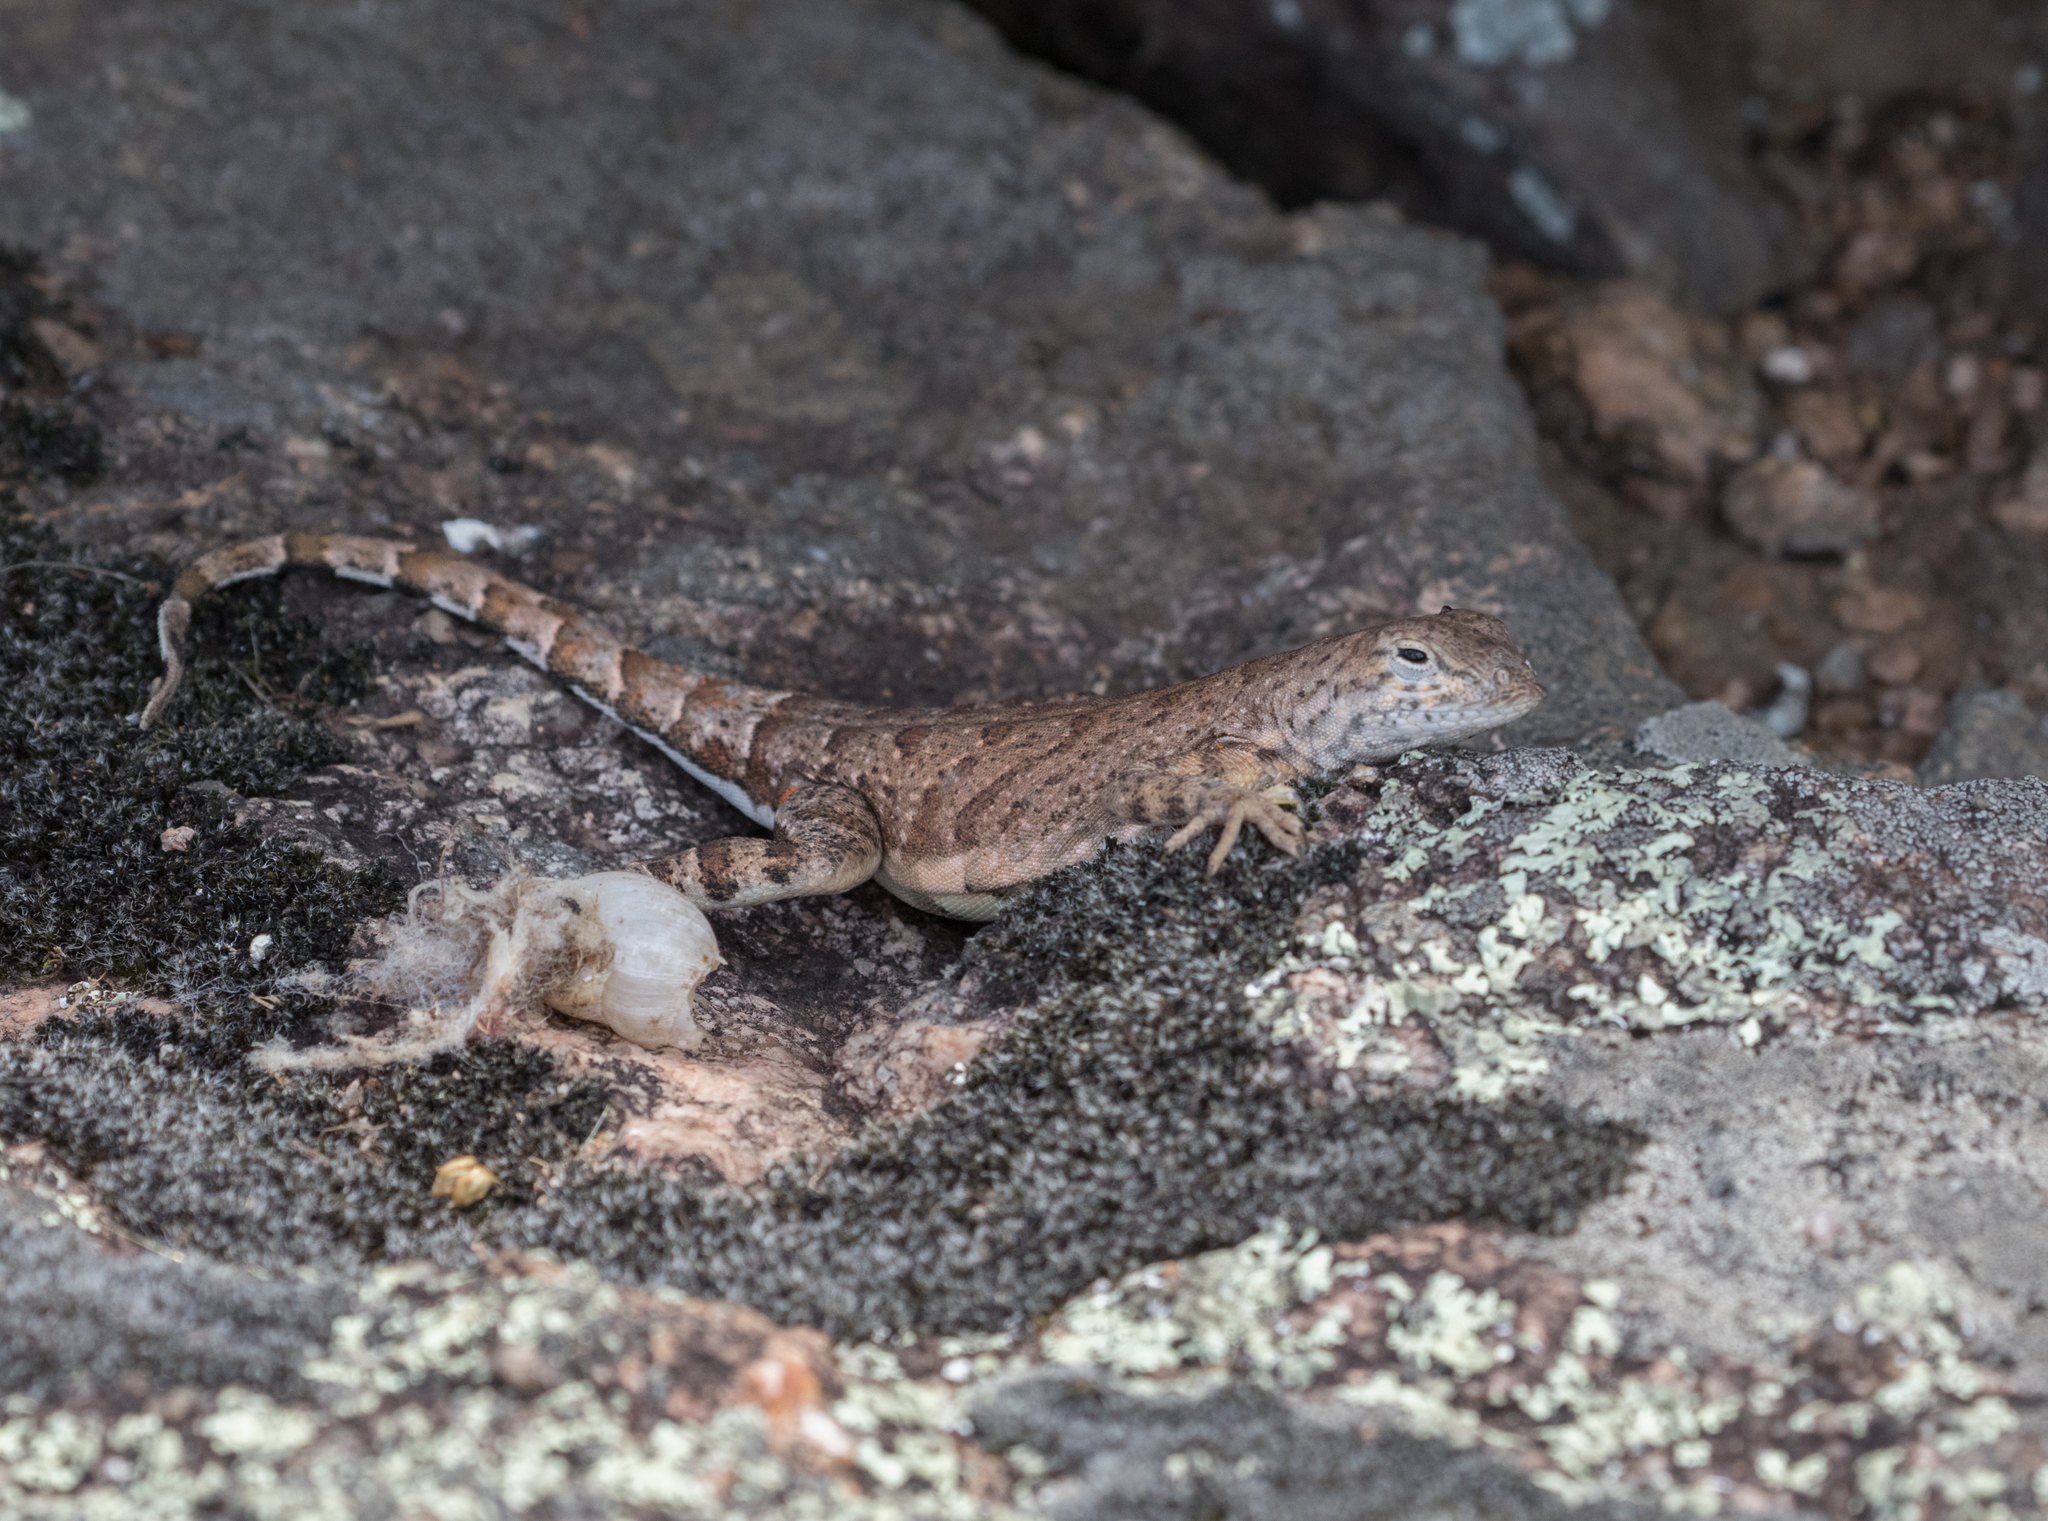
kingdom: Animalia
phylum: Chordata
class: Squamata
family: Phrynosomatidae
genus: Cophosaurus
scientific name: Cophosaurus texanus
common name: Greater earless lizard
